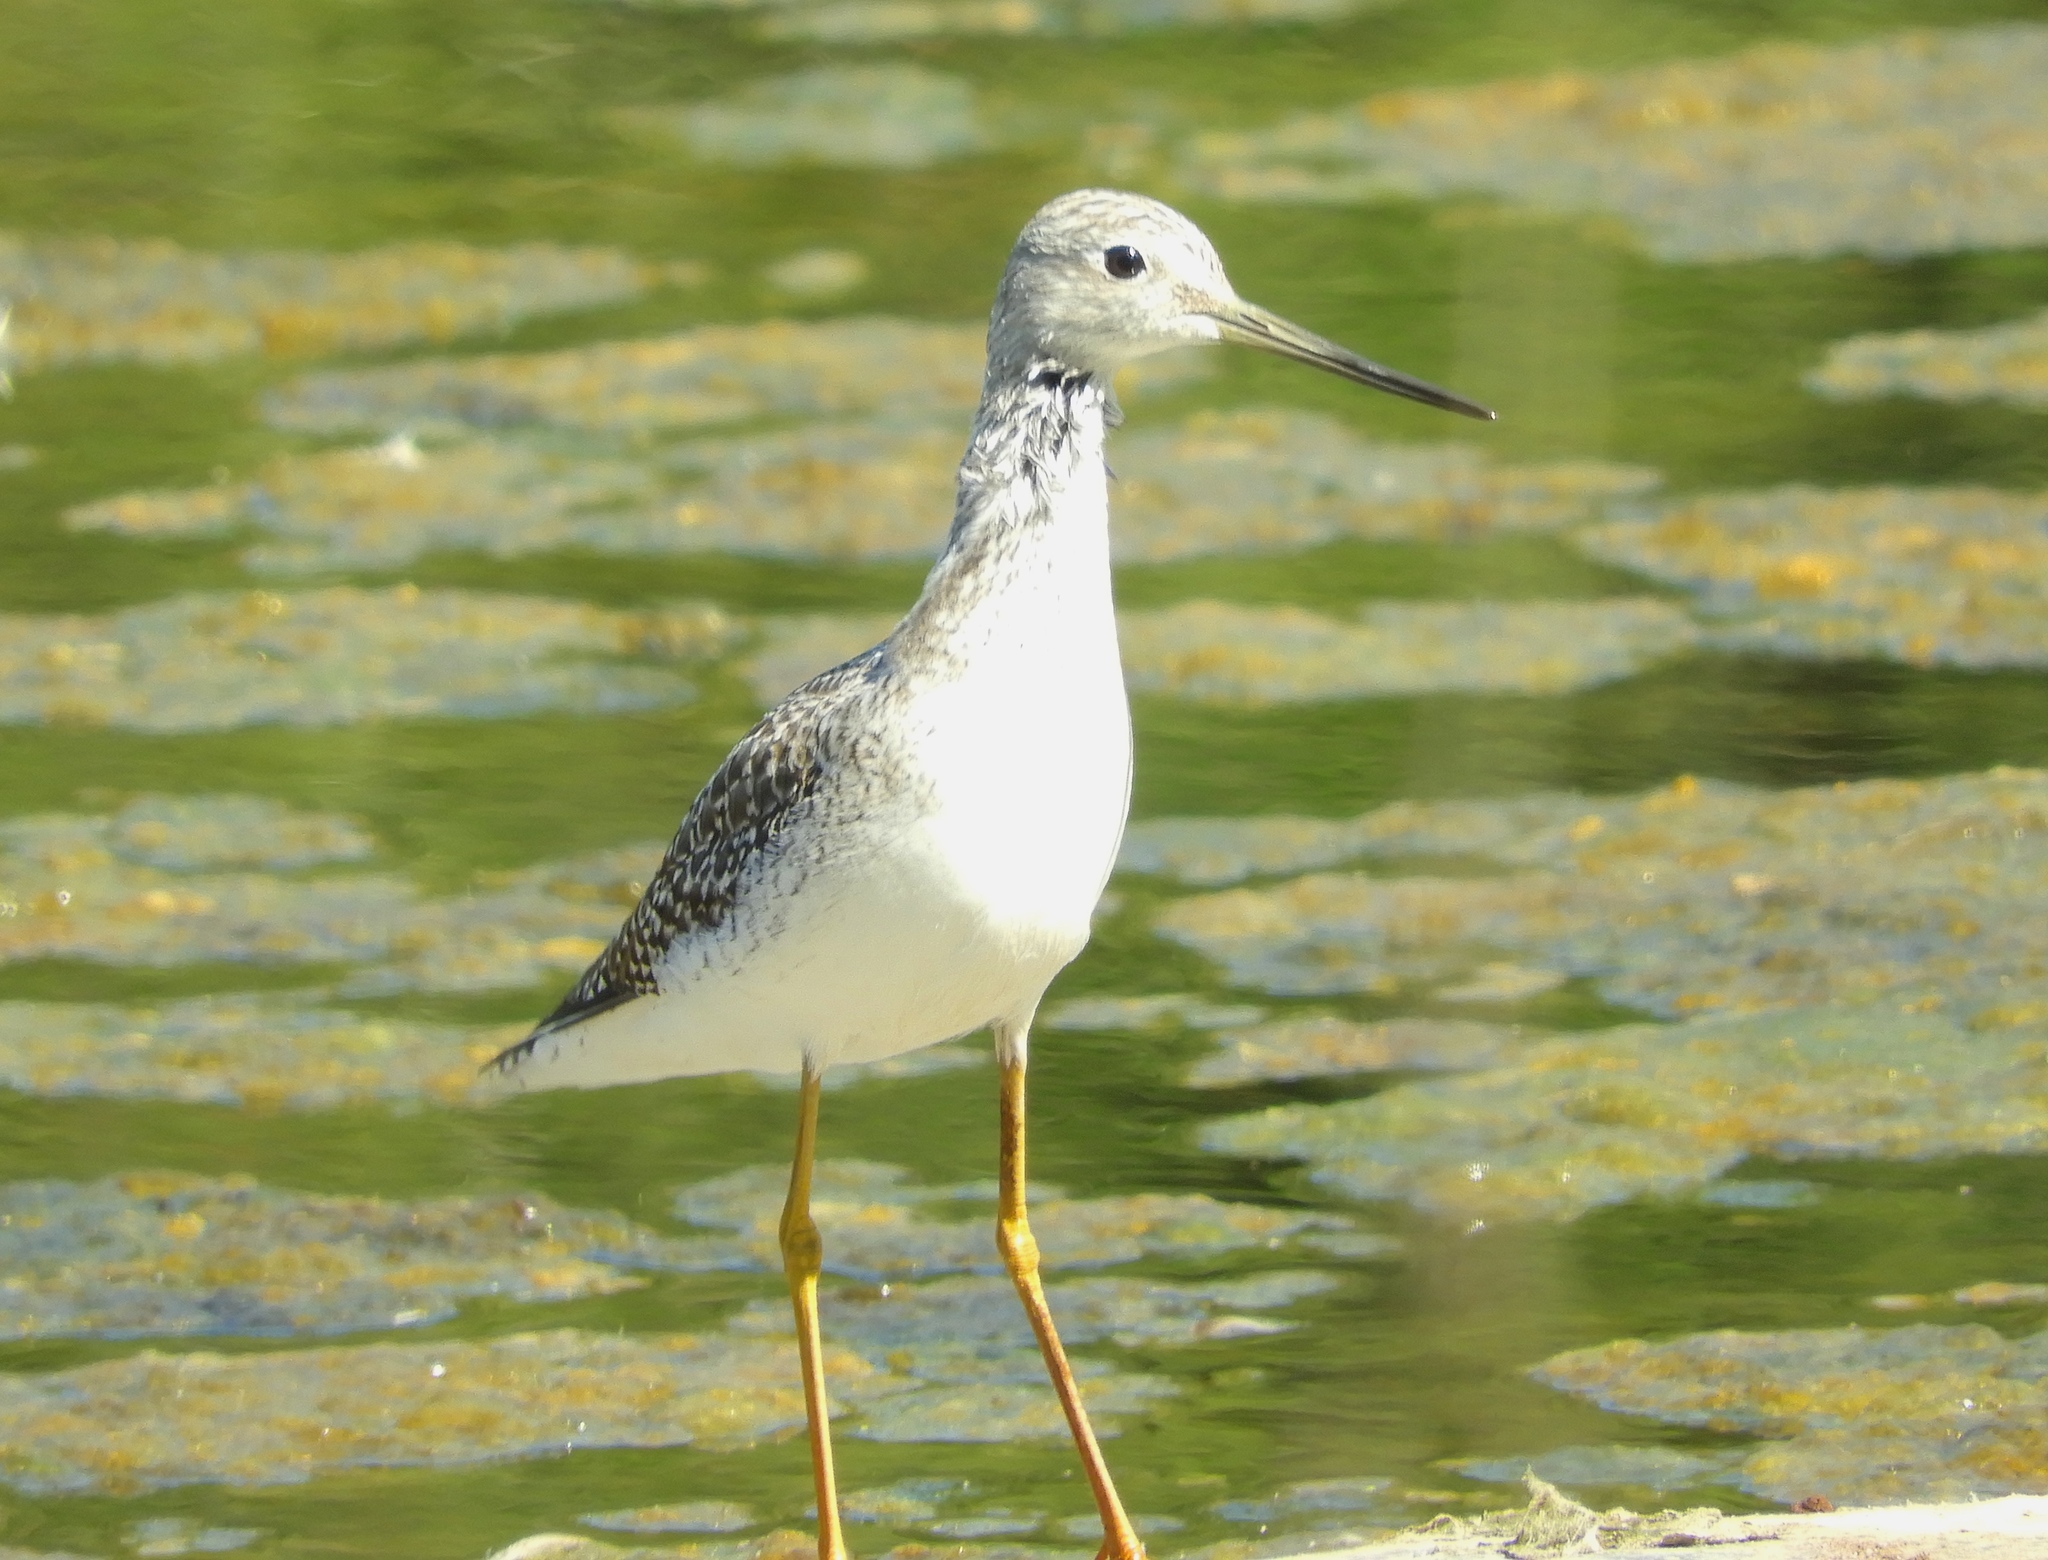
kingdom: Animalia
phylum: Chordata
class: Aves
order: Charadriiformes
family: Scolopacidae
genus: Tringa
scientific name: Tringa melanoleuca
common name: Greater yellowlegs
